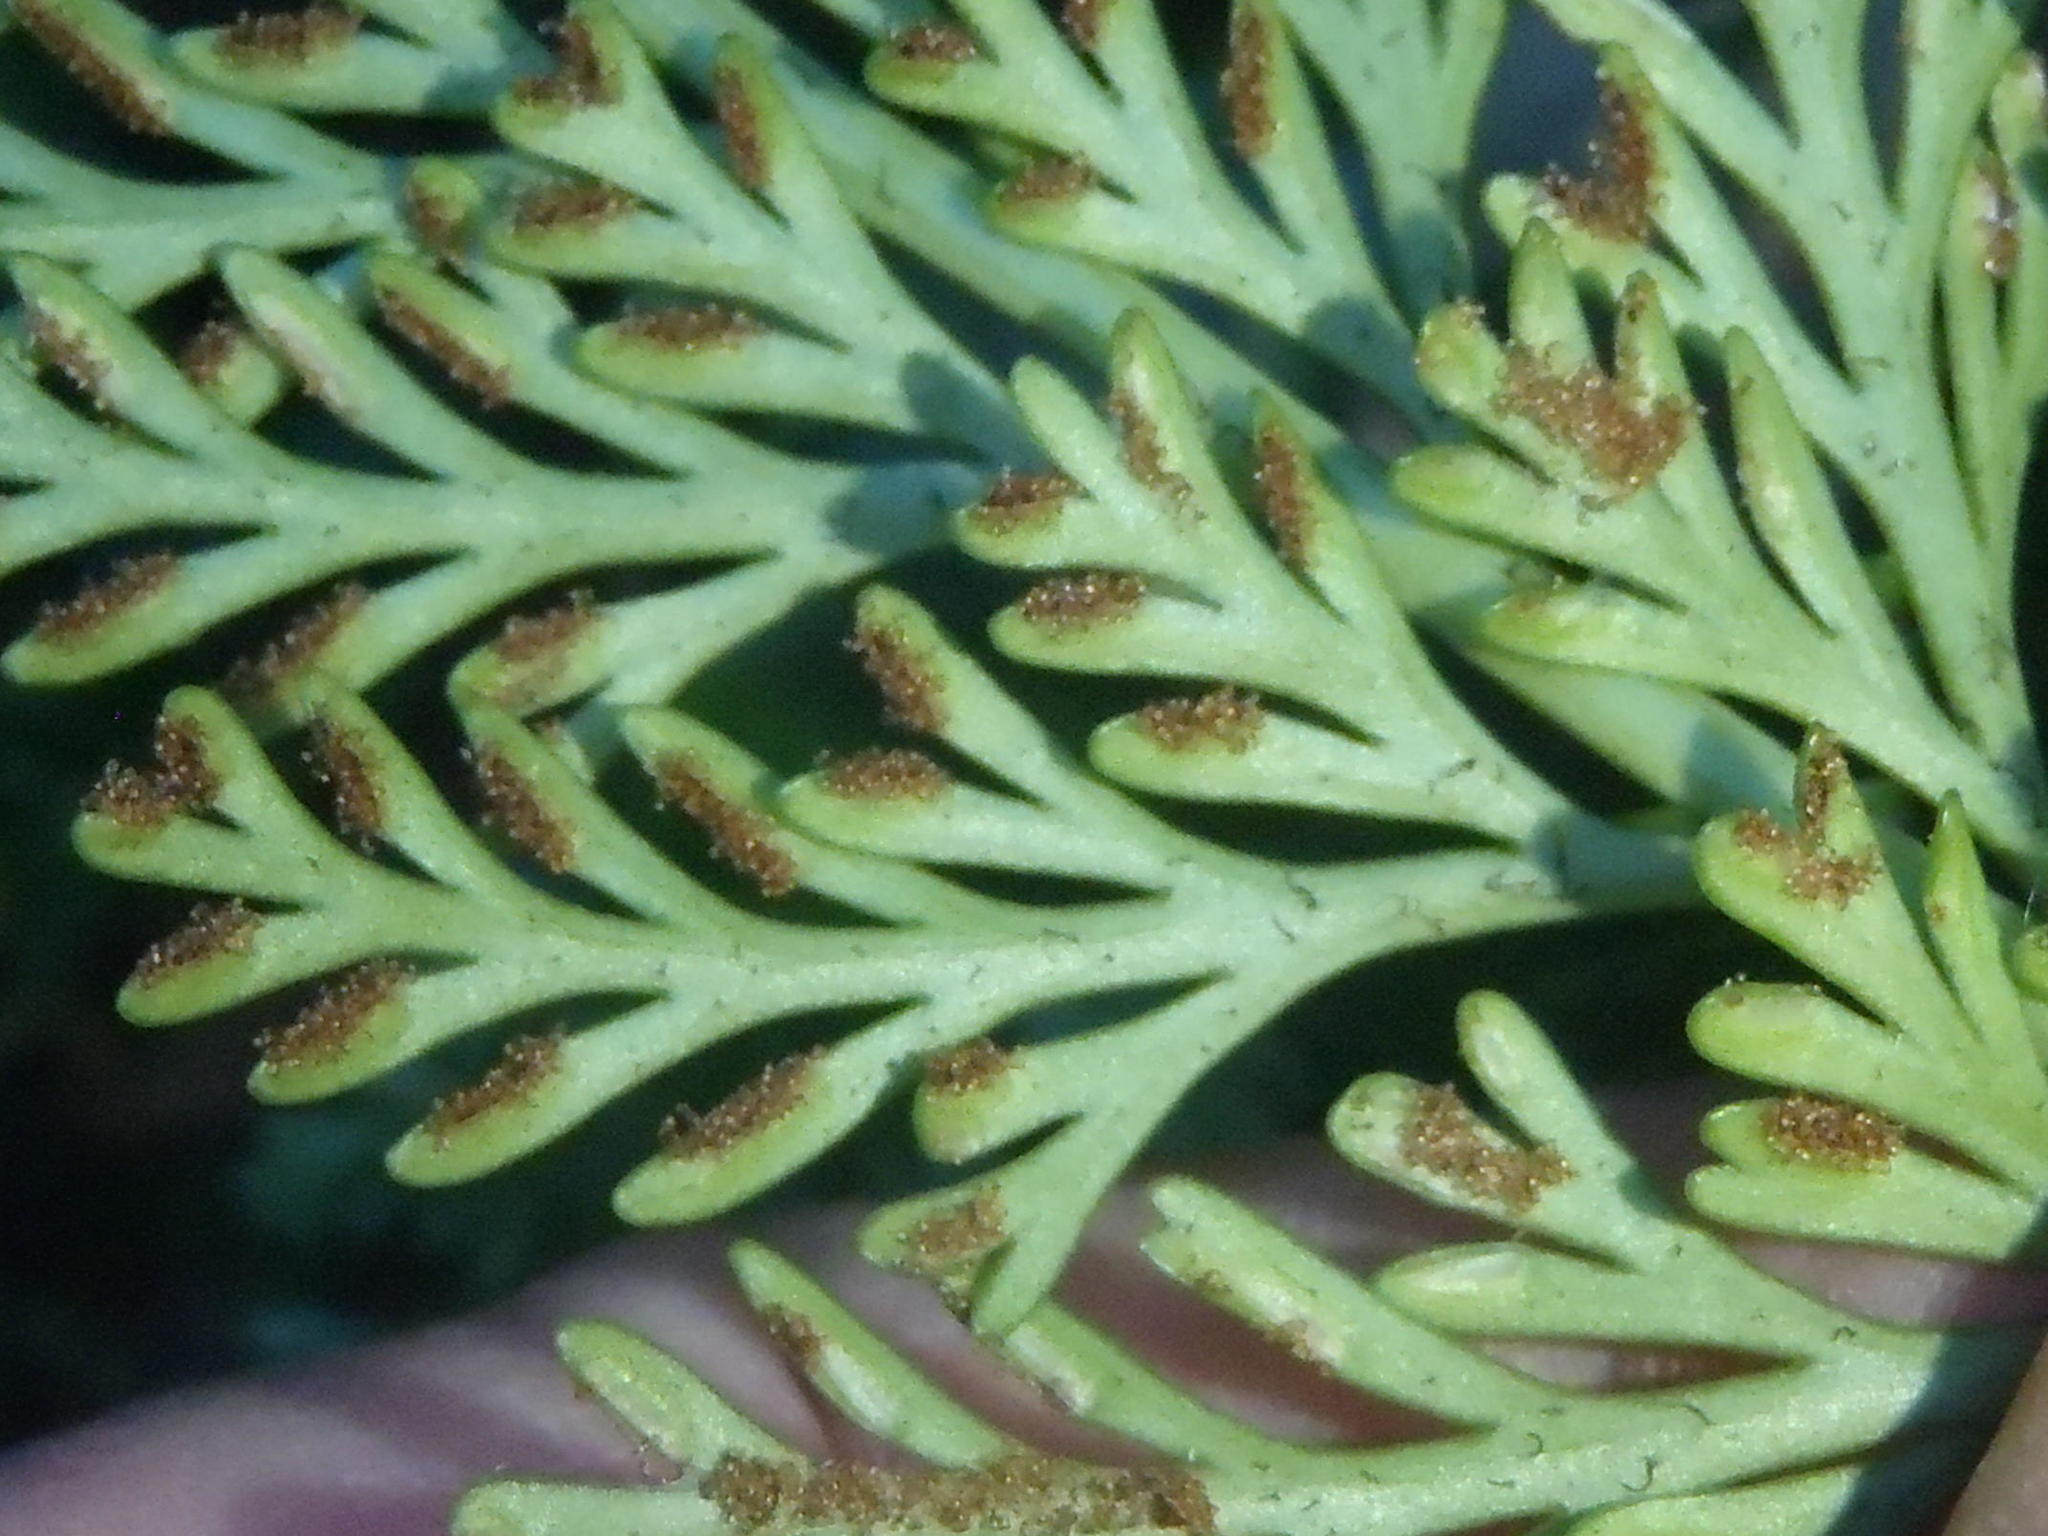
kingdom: Plantae
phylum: Tracheophyta
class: Polypodiopsida
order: Polypodiales
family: Aspleniaceae
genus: Asplenium
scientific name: Asplenium rutifolium
